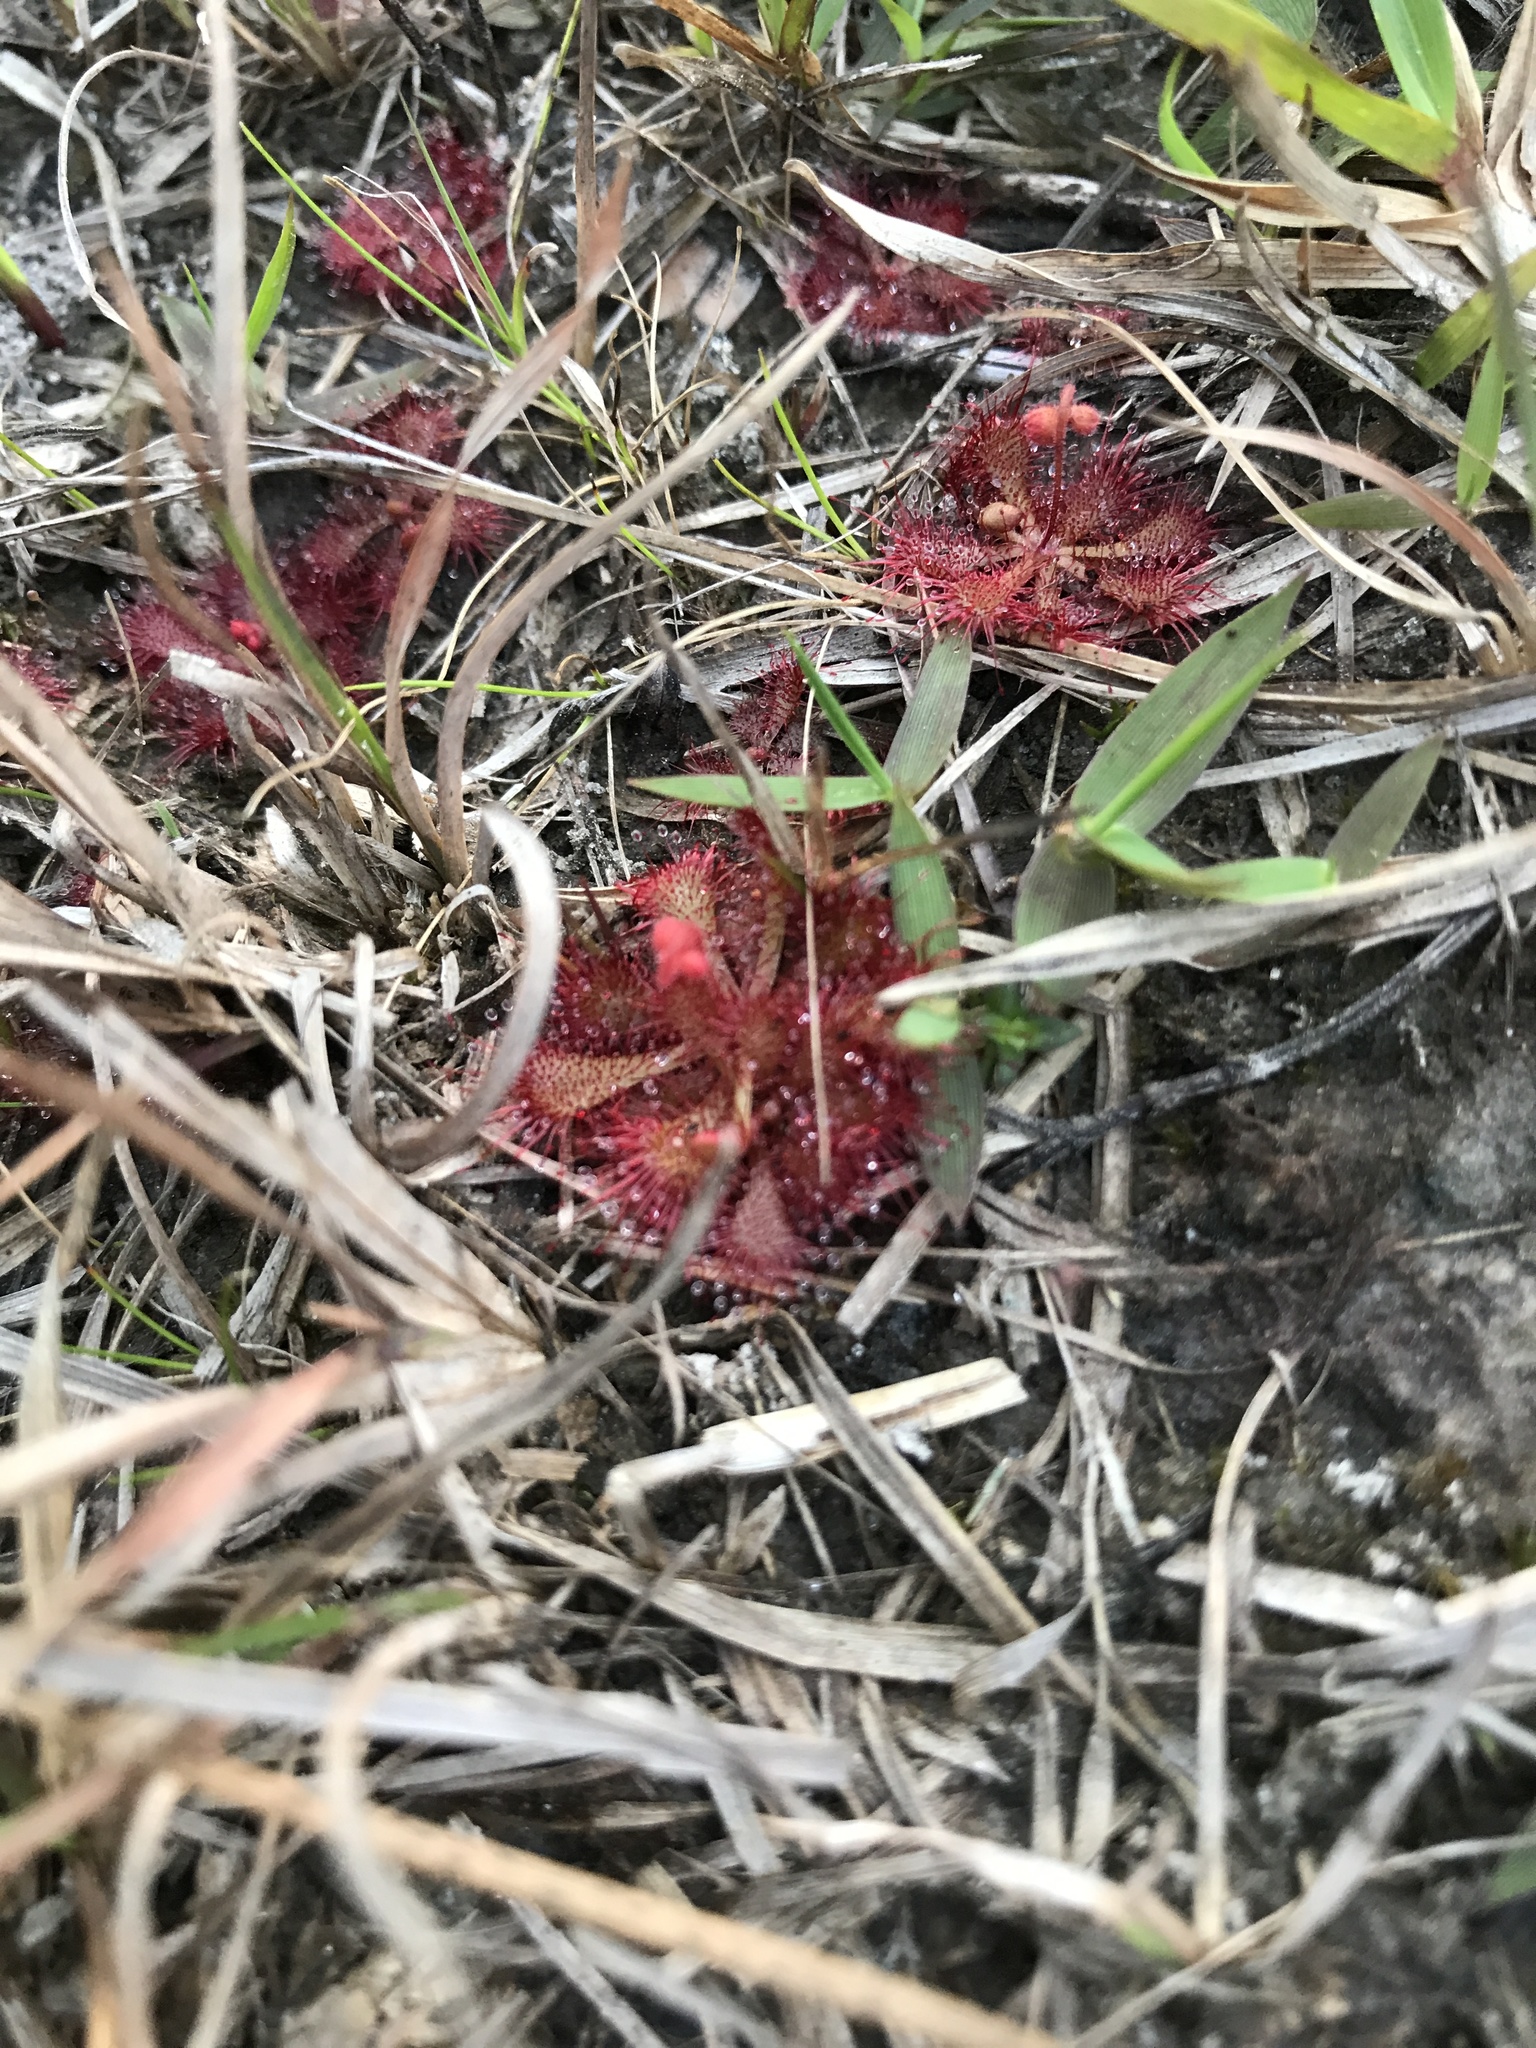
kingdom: Plantae
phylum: Tracheophyta
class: Magnoliopsida
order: Caryophyllales
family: Droseraceae
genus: Drosera
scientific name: Drosera brevifolia
